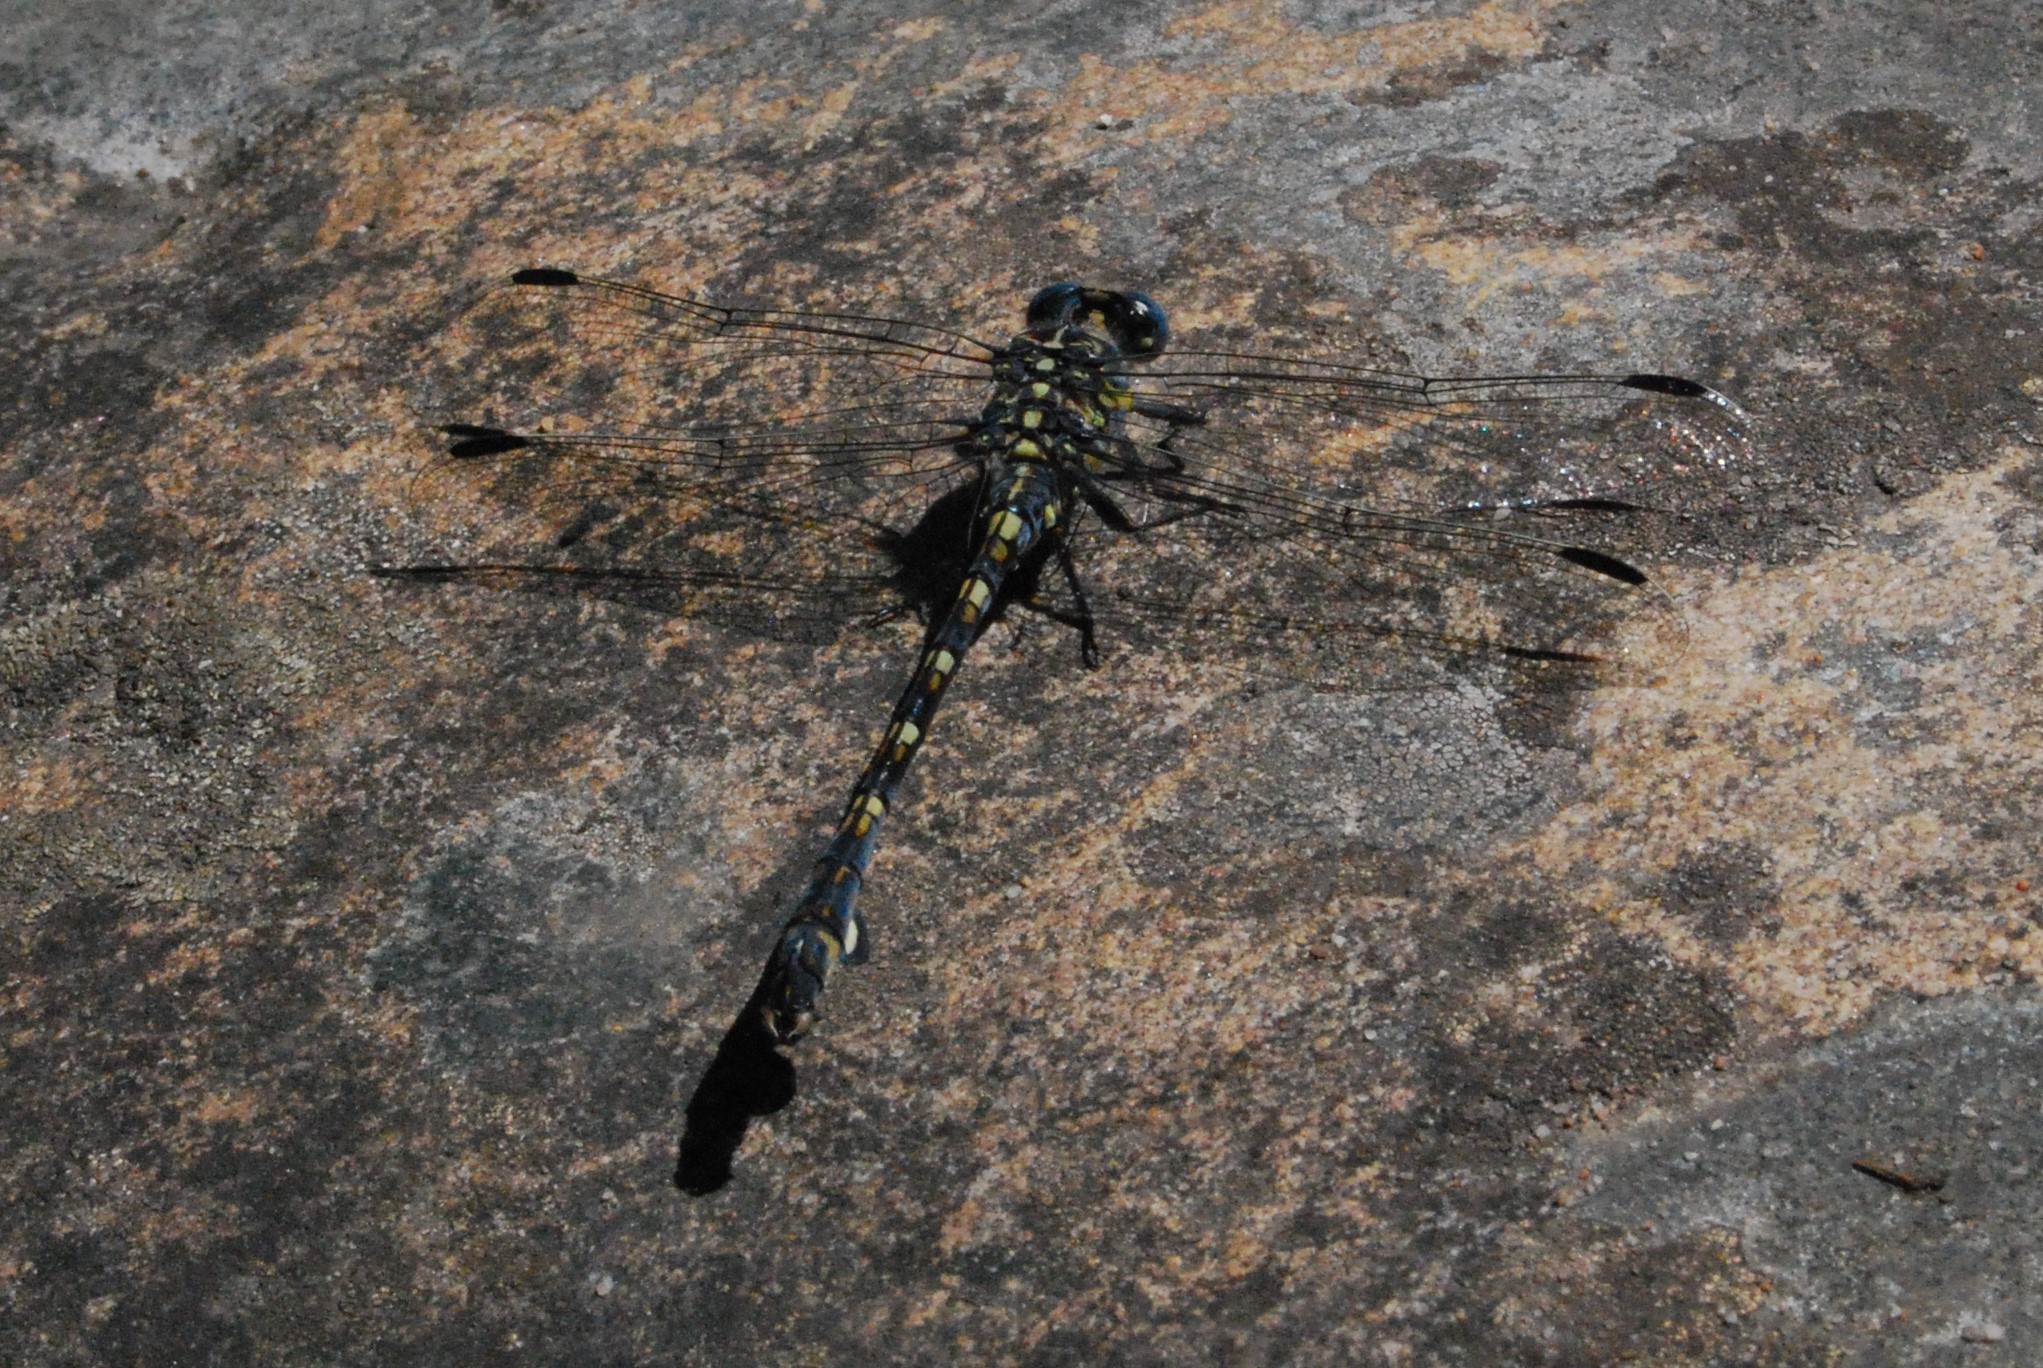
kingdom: Animalia
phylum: Arthropoda
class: Insecta
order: Odonata
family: Gomphidae
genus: Ceratogomphus
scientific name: Ceratogomphus triceraticus
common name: Cape thorntail
